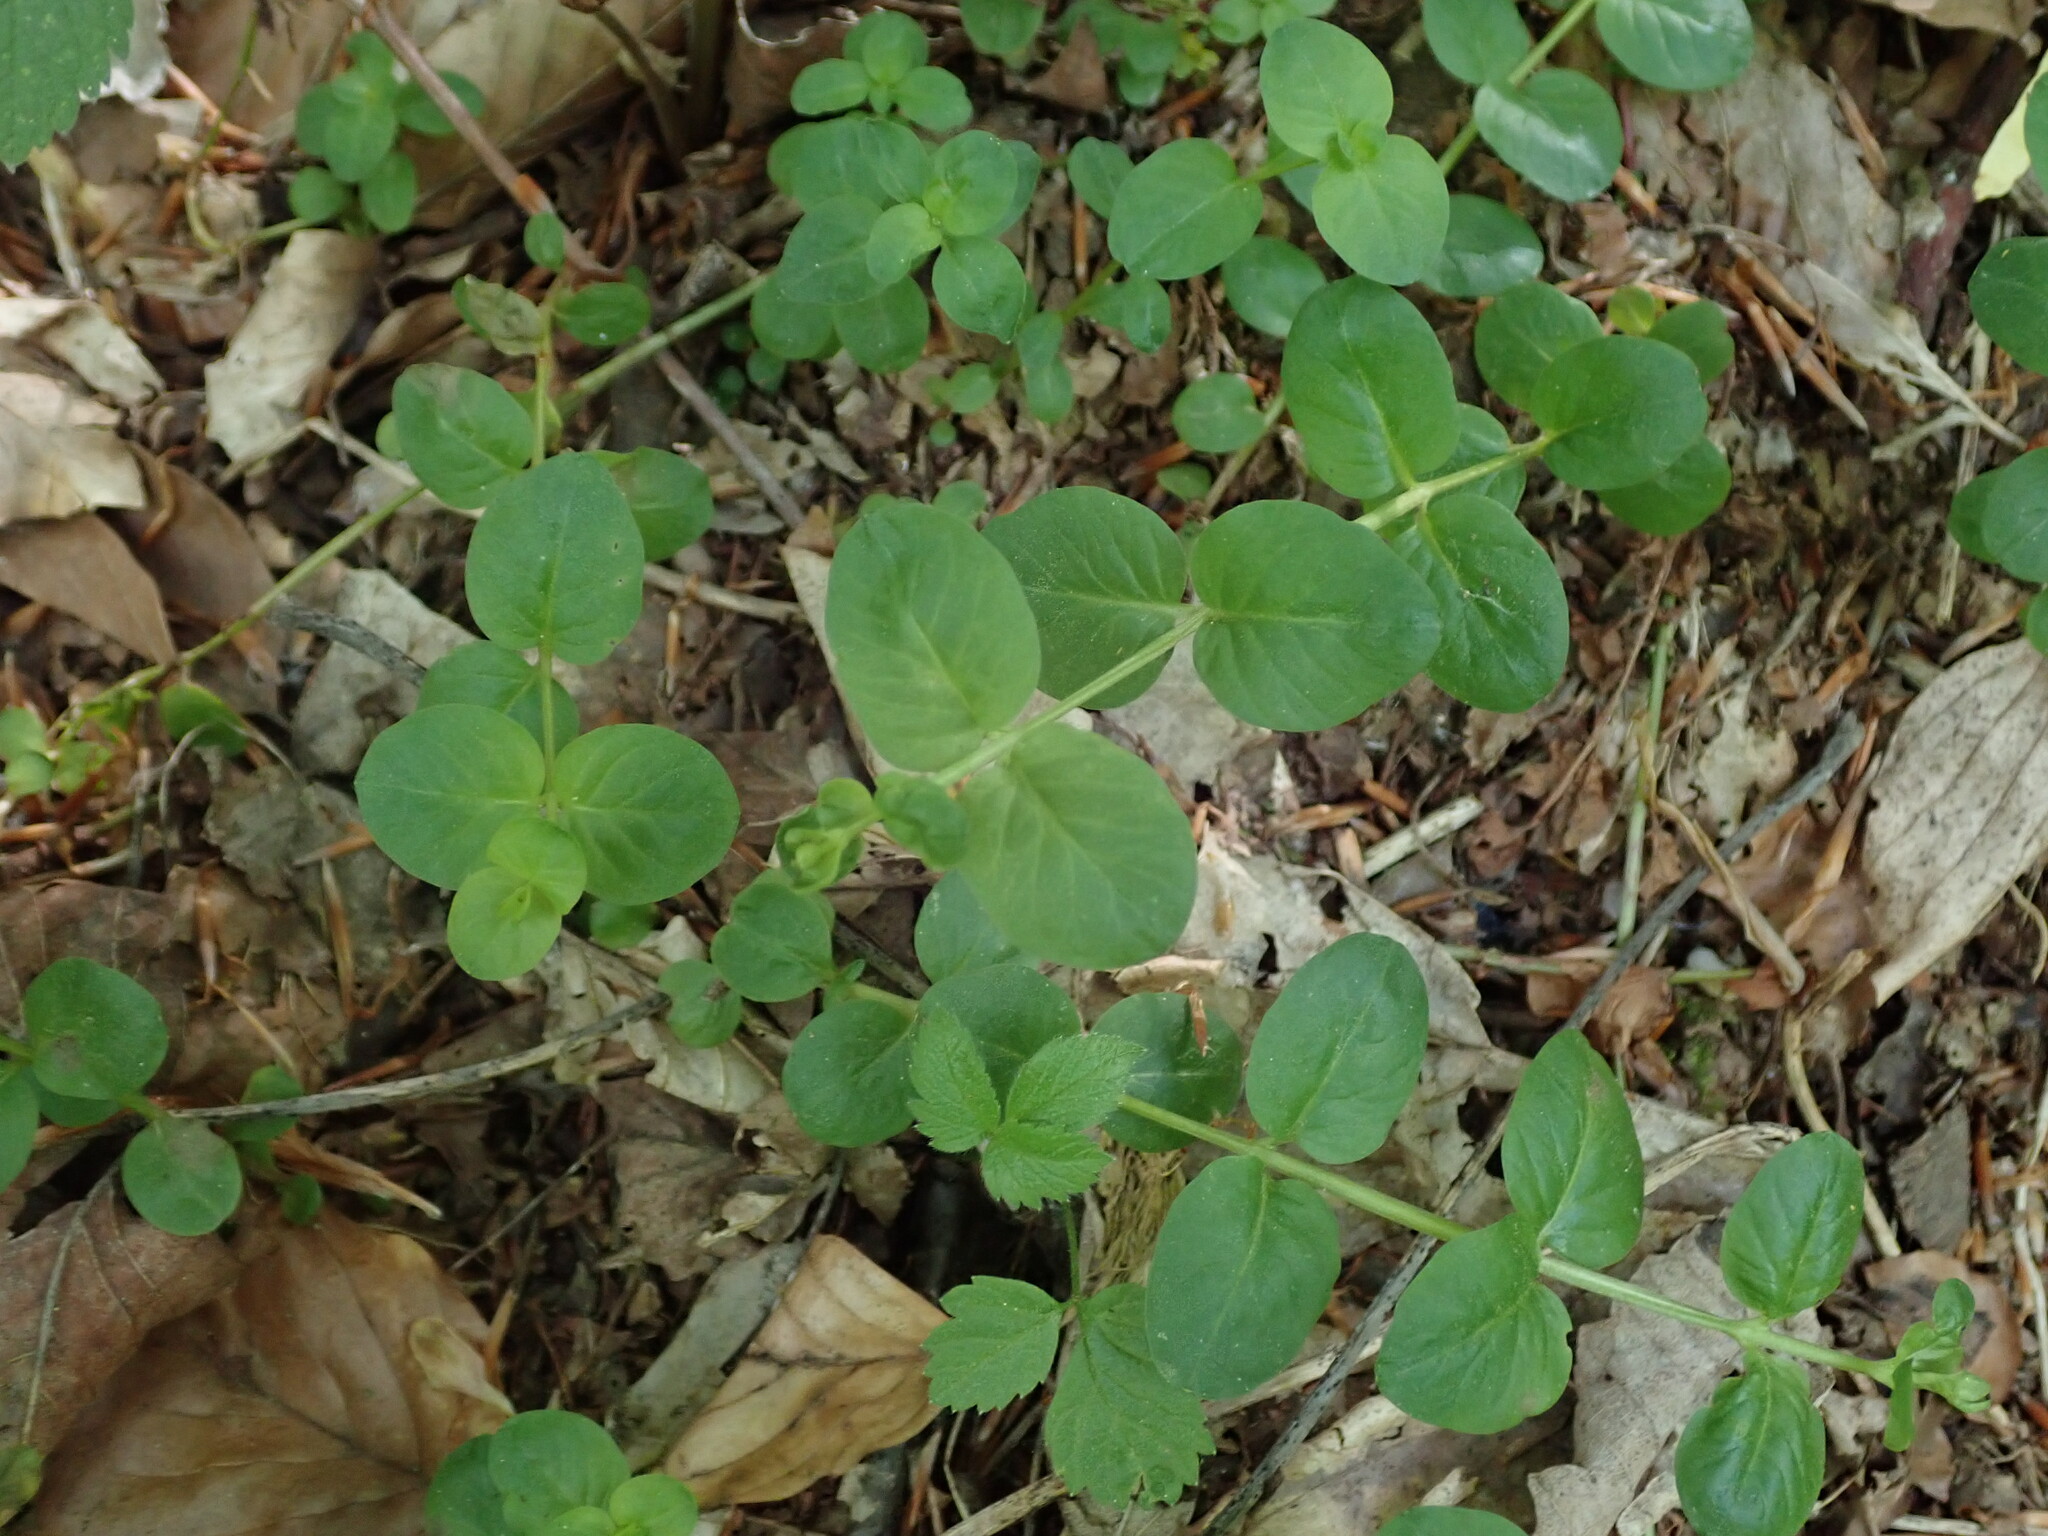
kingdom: Plantae
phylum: Tracheophyta
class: Magnoliopsida
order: Ericales
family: Primulaceae
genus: Lysimachia
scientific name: Lysimachia nummularia
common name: Moneywort
